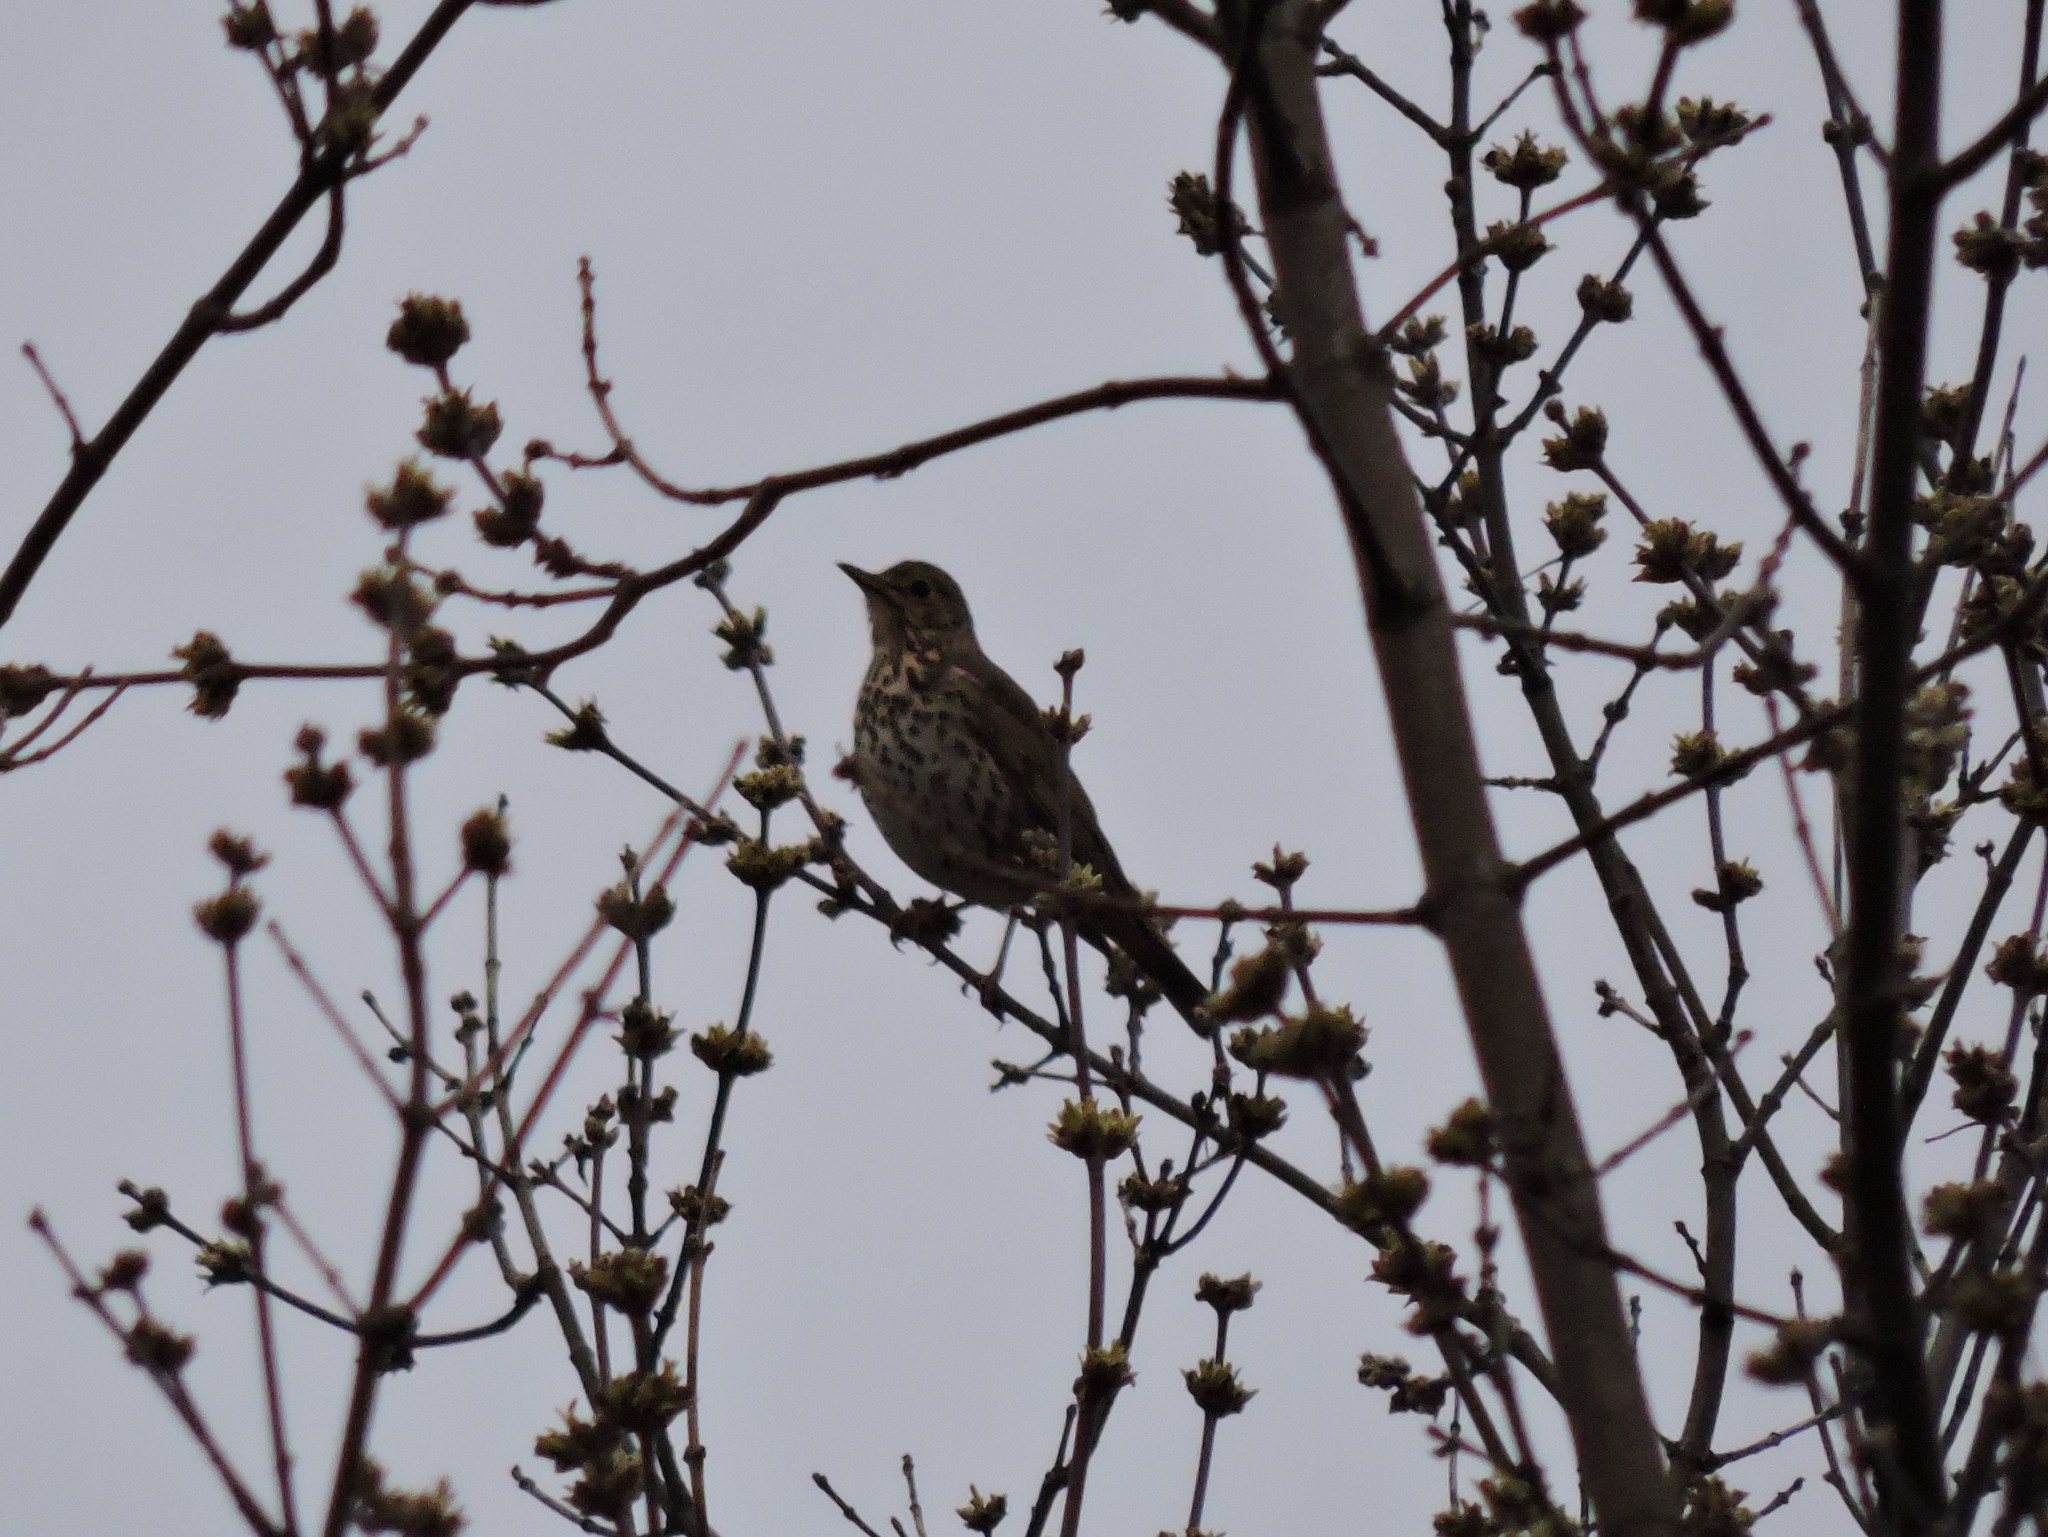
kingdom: Animalia
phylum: Chordata
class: Aves
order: Passeriformes
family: Turdidae
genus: Turdus
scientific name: Turdus philomelos
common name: Song thrush
